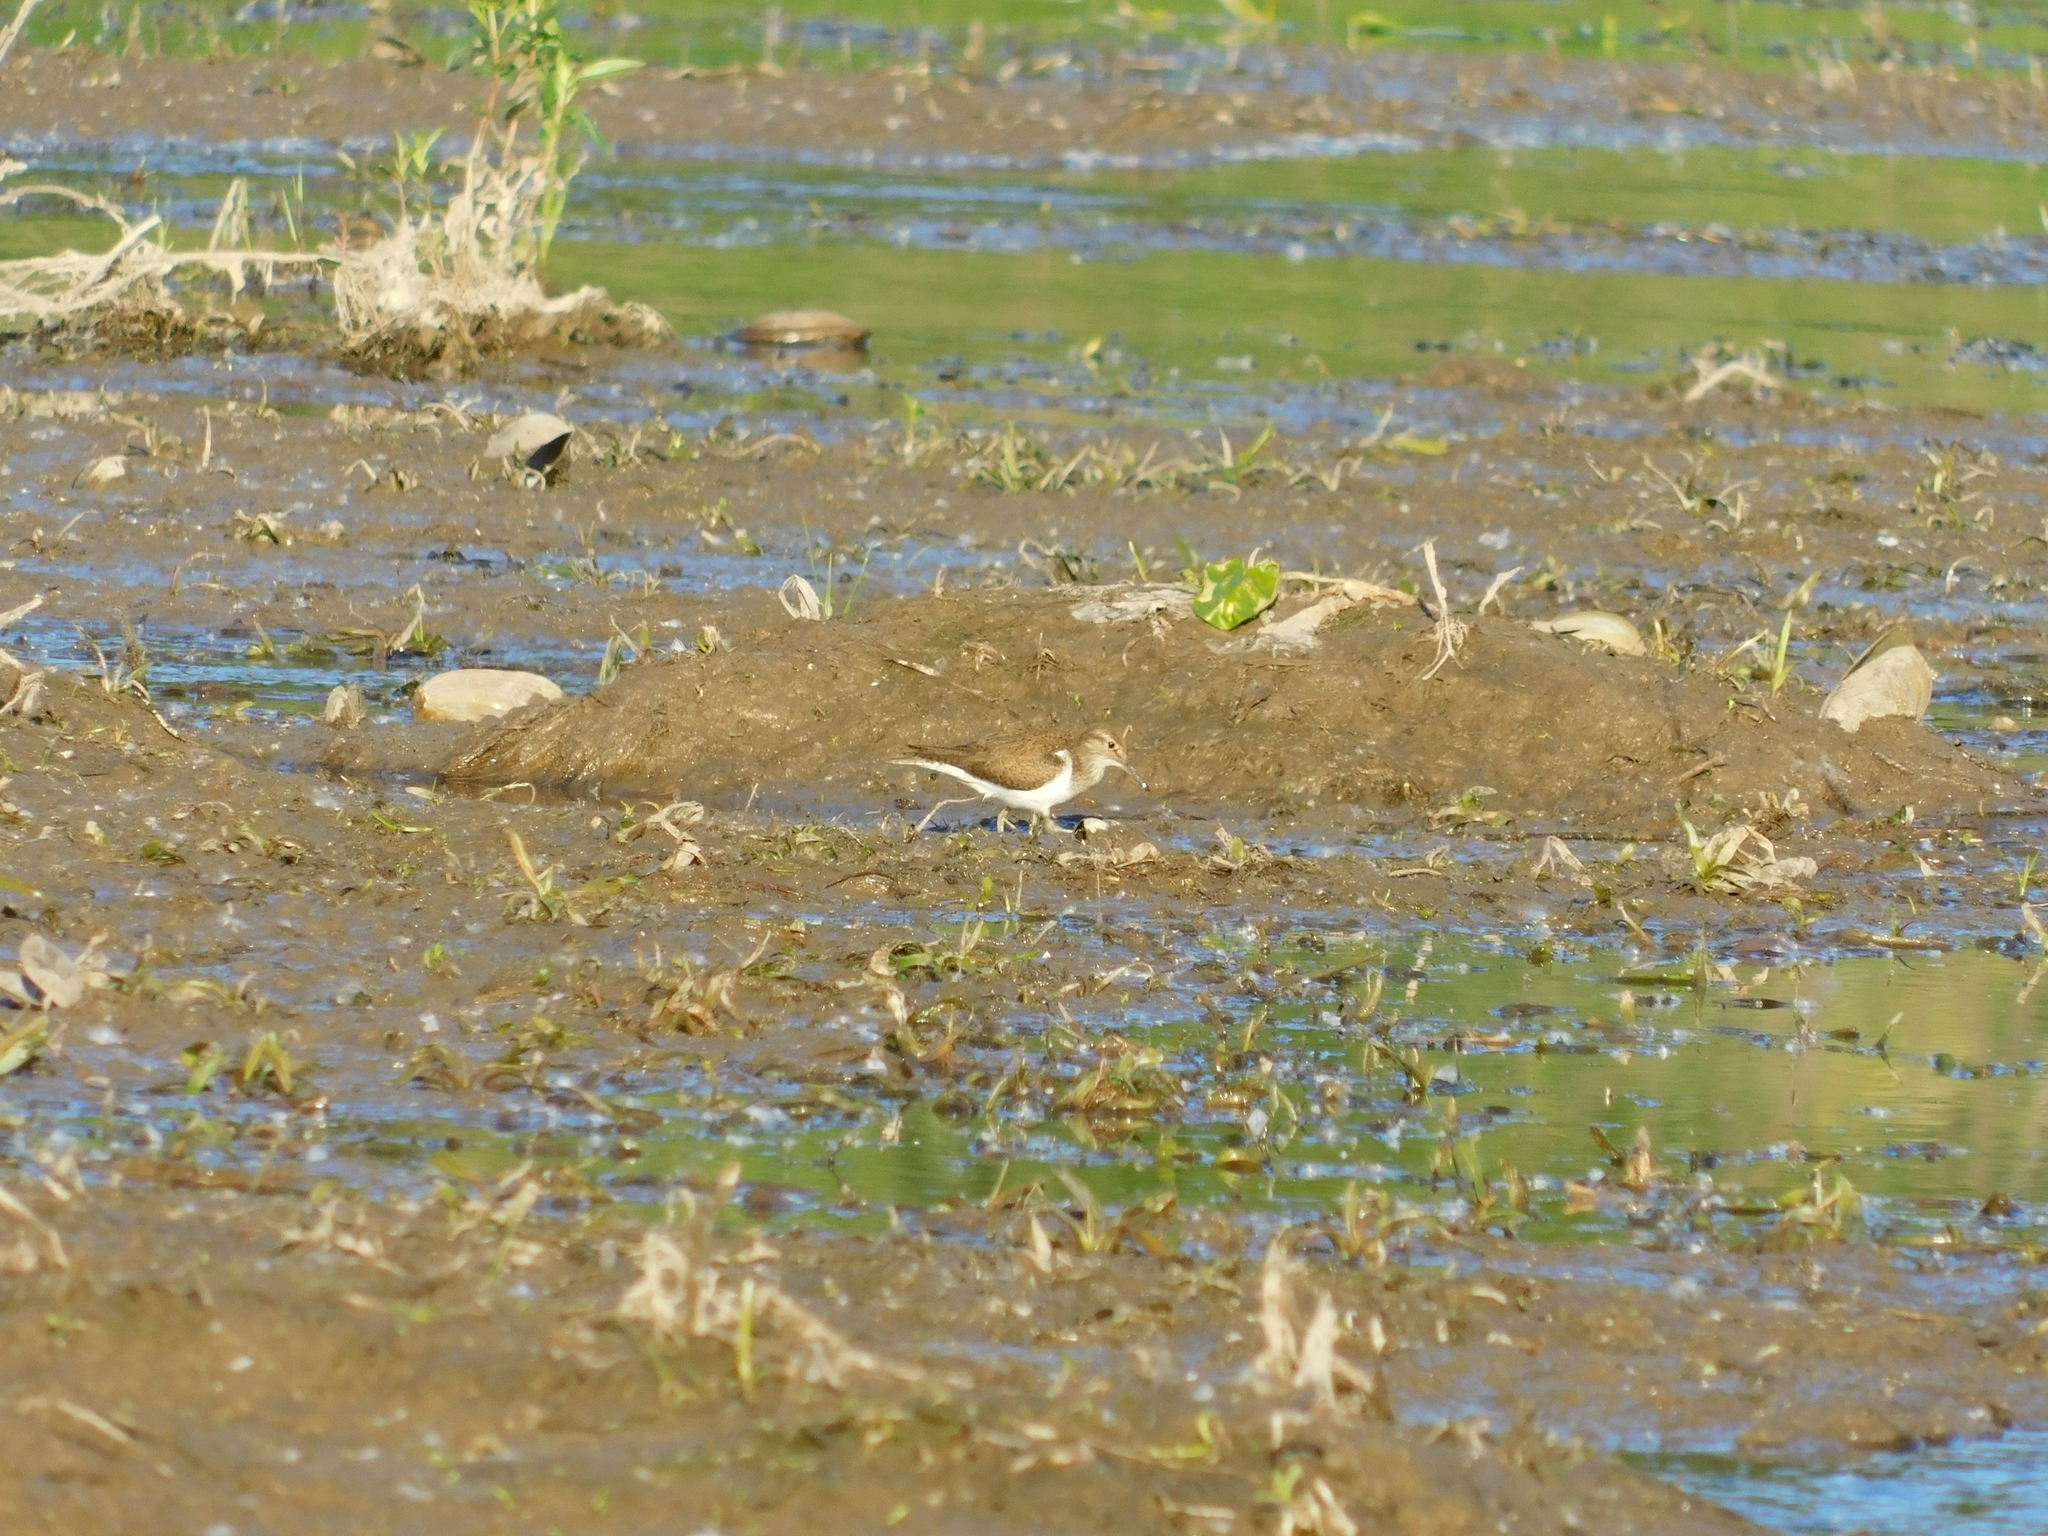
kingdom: Animalia
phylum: Chordata
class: Aves
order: Charadriiformes
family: Scolopacidae
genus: Actitis
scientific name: Actitis hypoleucos
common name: Common sandpiper
